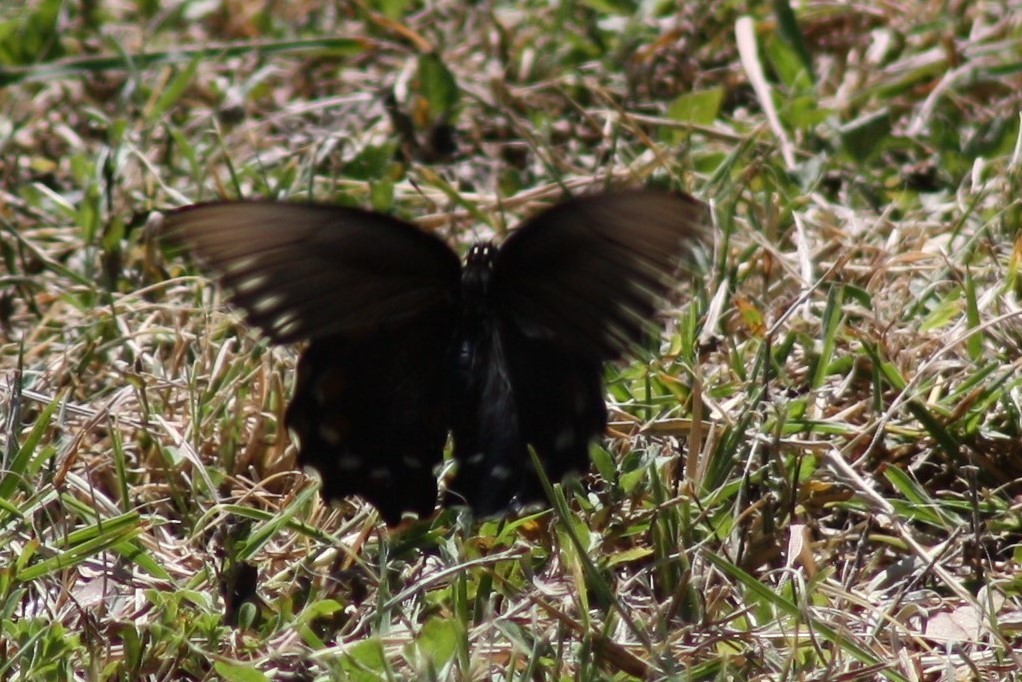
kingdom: Animalia
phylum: Arthropoda
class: Insecta
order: Lepidoptera
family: Papilionidae
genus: Battus
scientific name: Battus philenor
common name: Pipevine swallowtail
